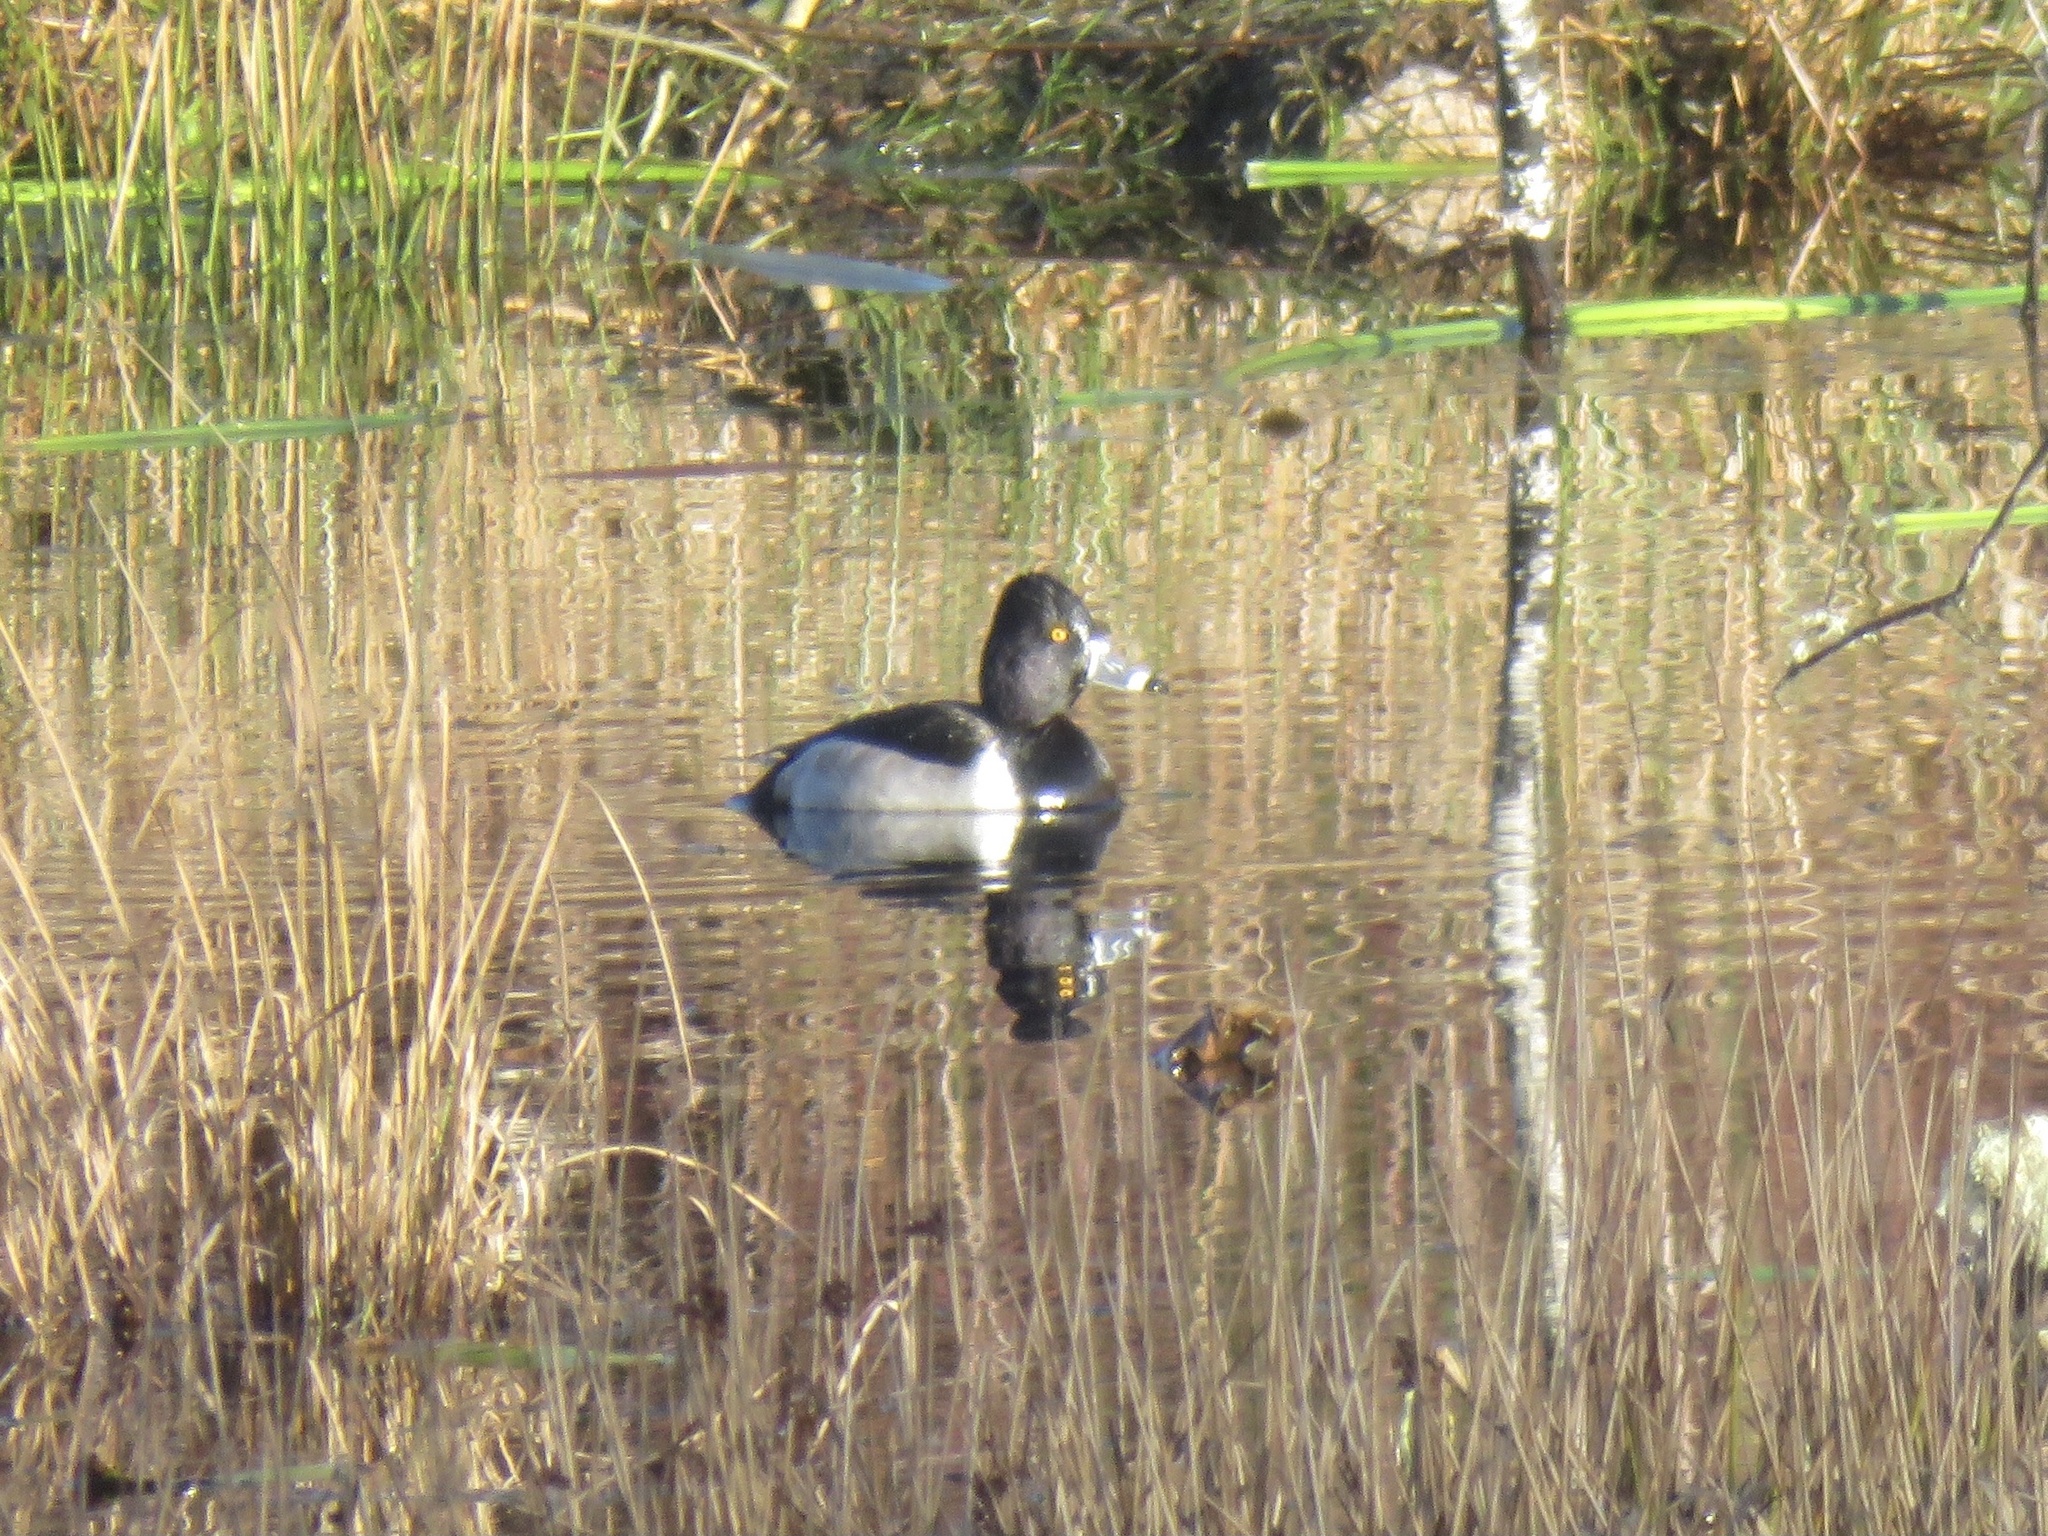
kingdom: Animalia
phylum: Chordata
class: Aves
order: Anseriformes
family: Anatidae
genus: Aythya
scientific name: Aythya collaris
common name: Ring-necked duck
